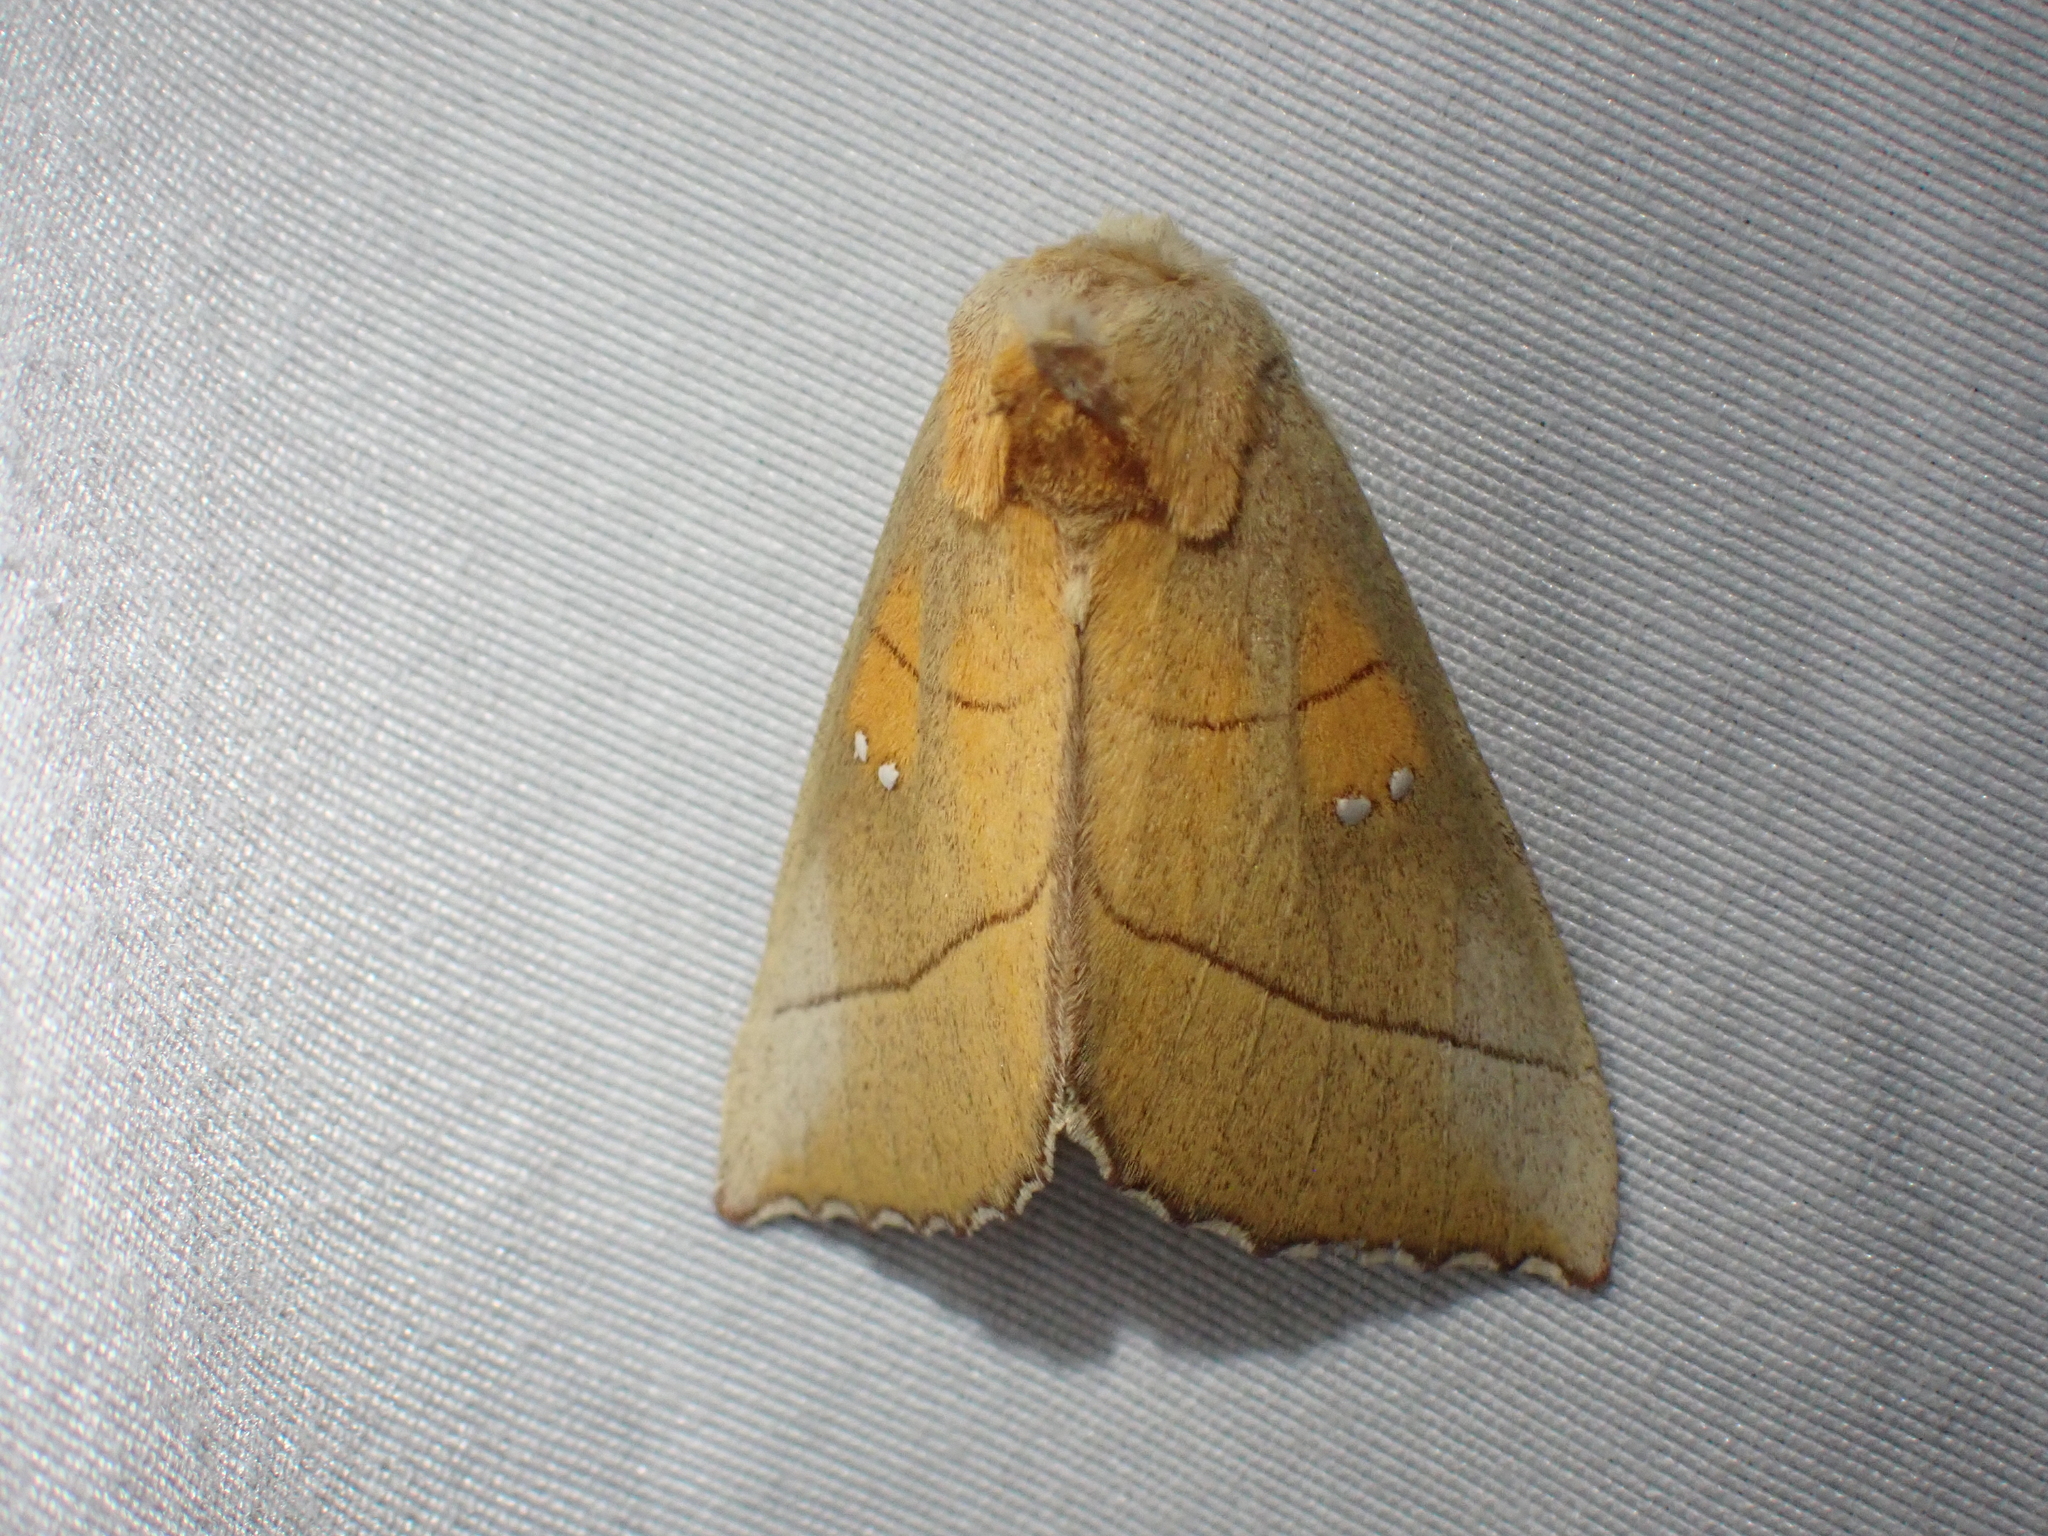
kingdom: Animalia
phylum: Arthropoda
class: Insecta
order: Lepidoptera
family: Notodontidae
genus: Nadata
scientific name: Nadata gibbosa
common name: White-dotted prominent
